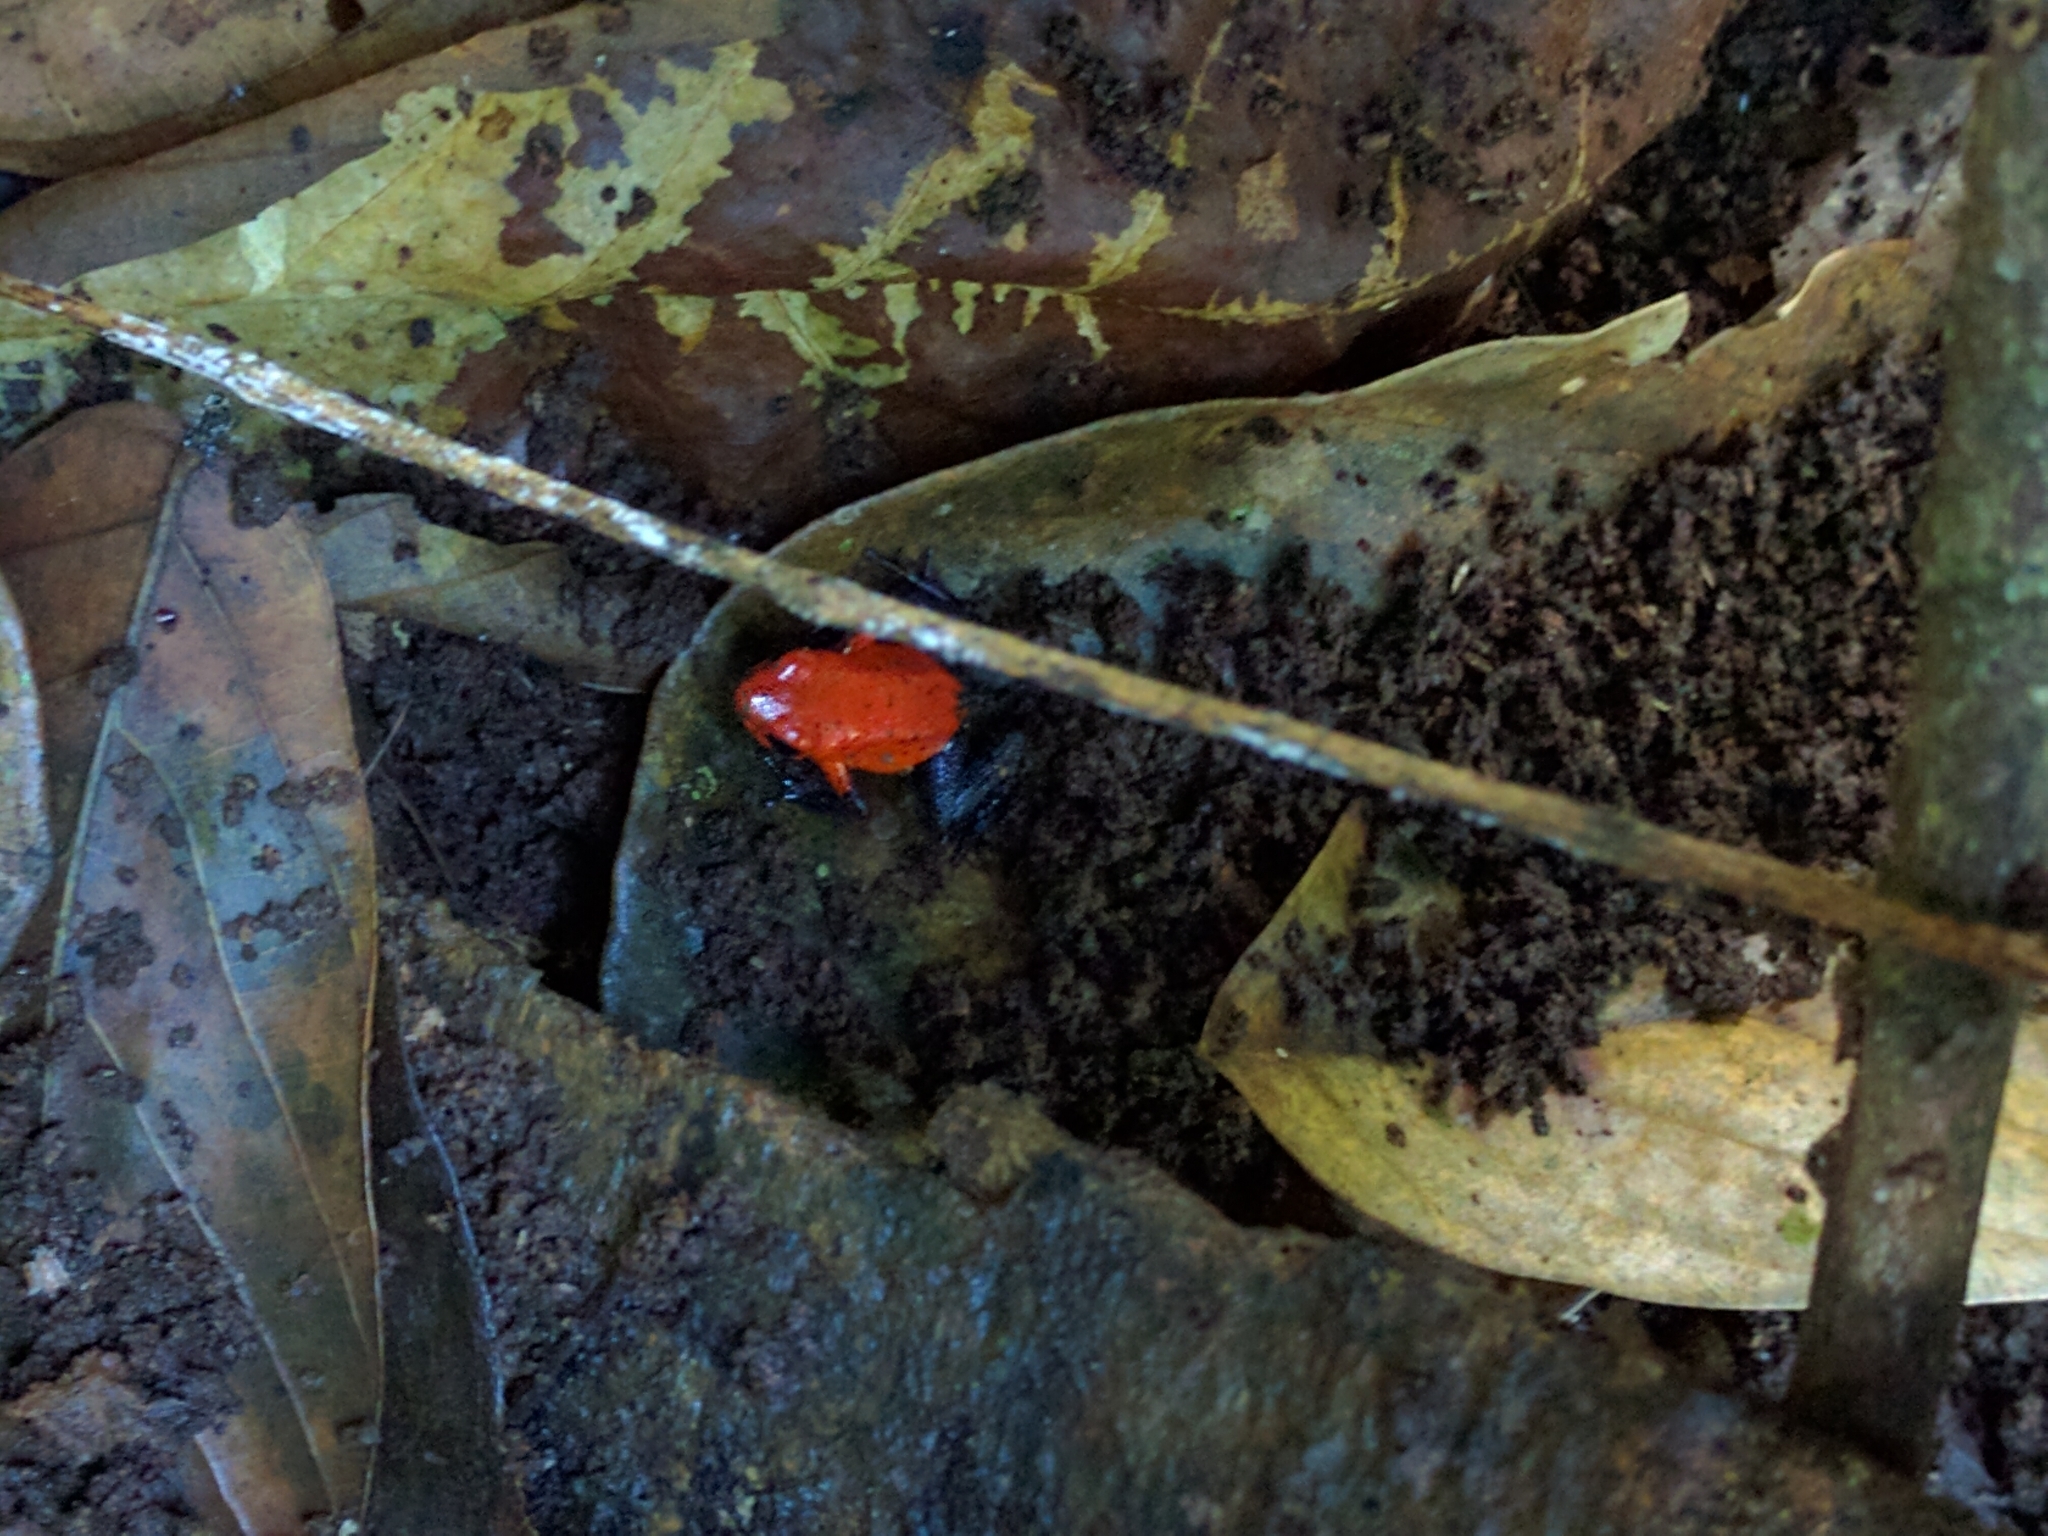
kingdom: Animalia
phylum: Chordata
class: Amphibia
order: Anura
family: Dendrobatidae
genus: Oophaga
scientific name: Oophaga pumilio
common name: Flaming poison frog
